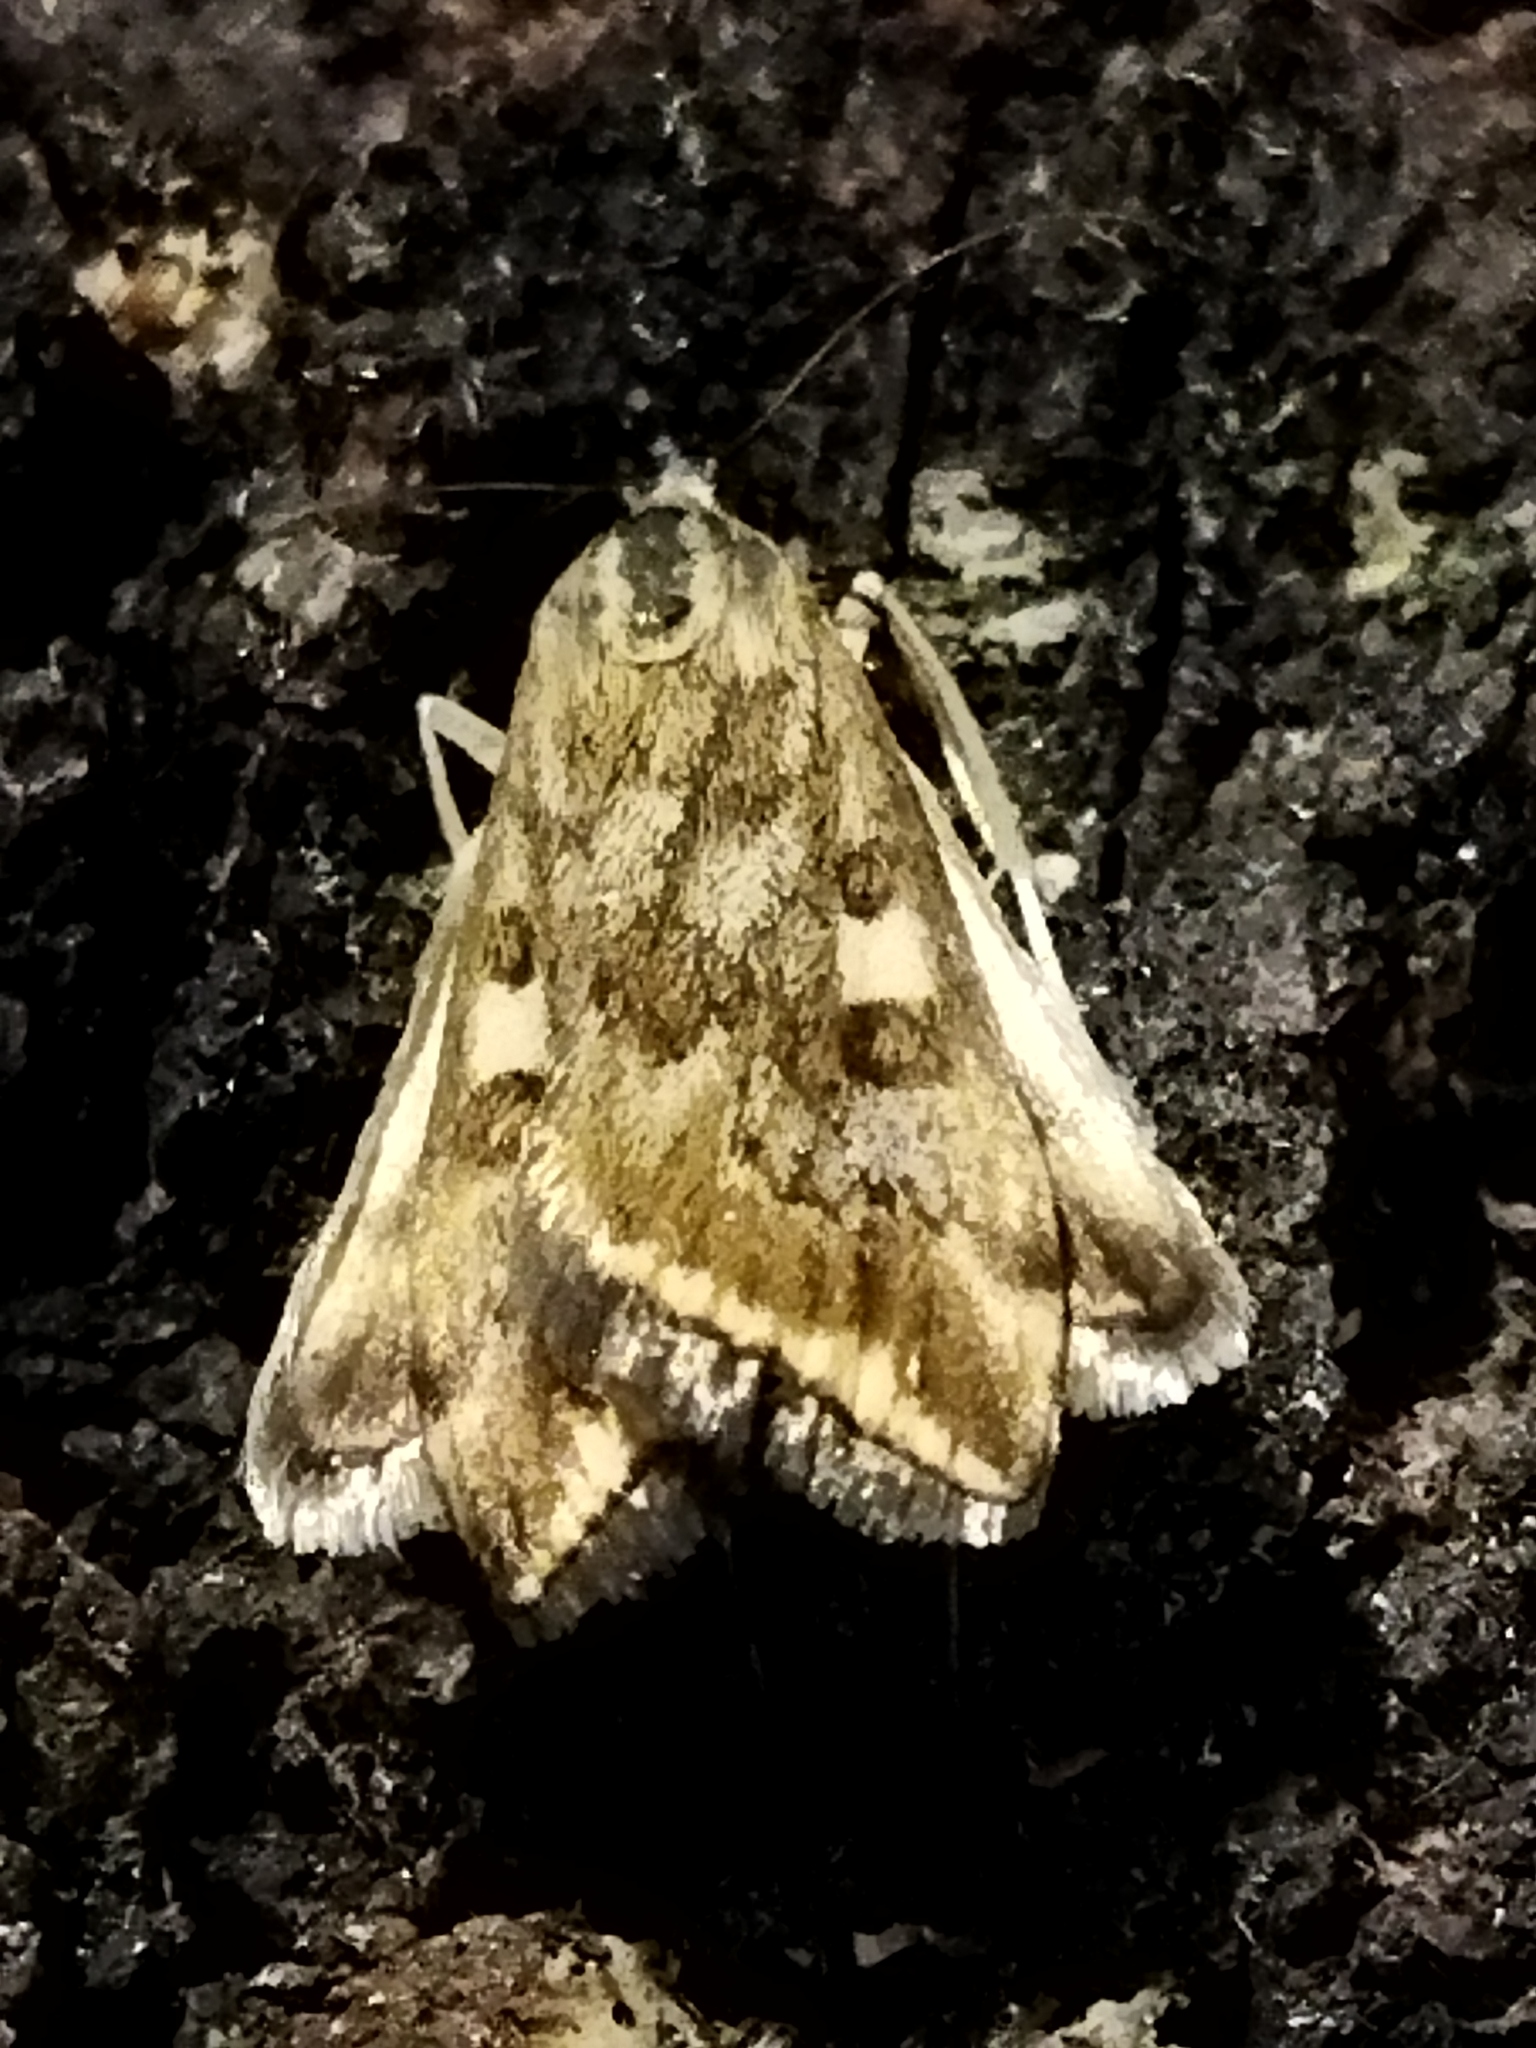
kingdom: Animalia
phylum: Arthropoda
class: Insecta
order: Lepidoptera
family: Crambidae
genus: Loxostege
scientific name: Loxostege sticticalis
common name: Crambid moth
